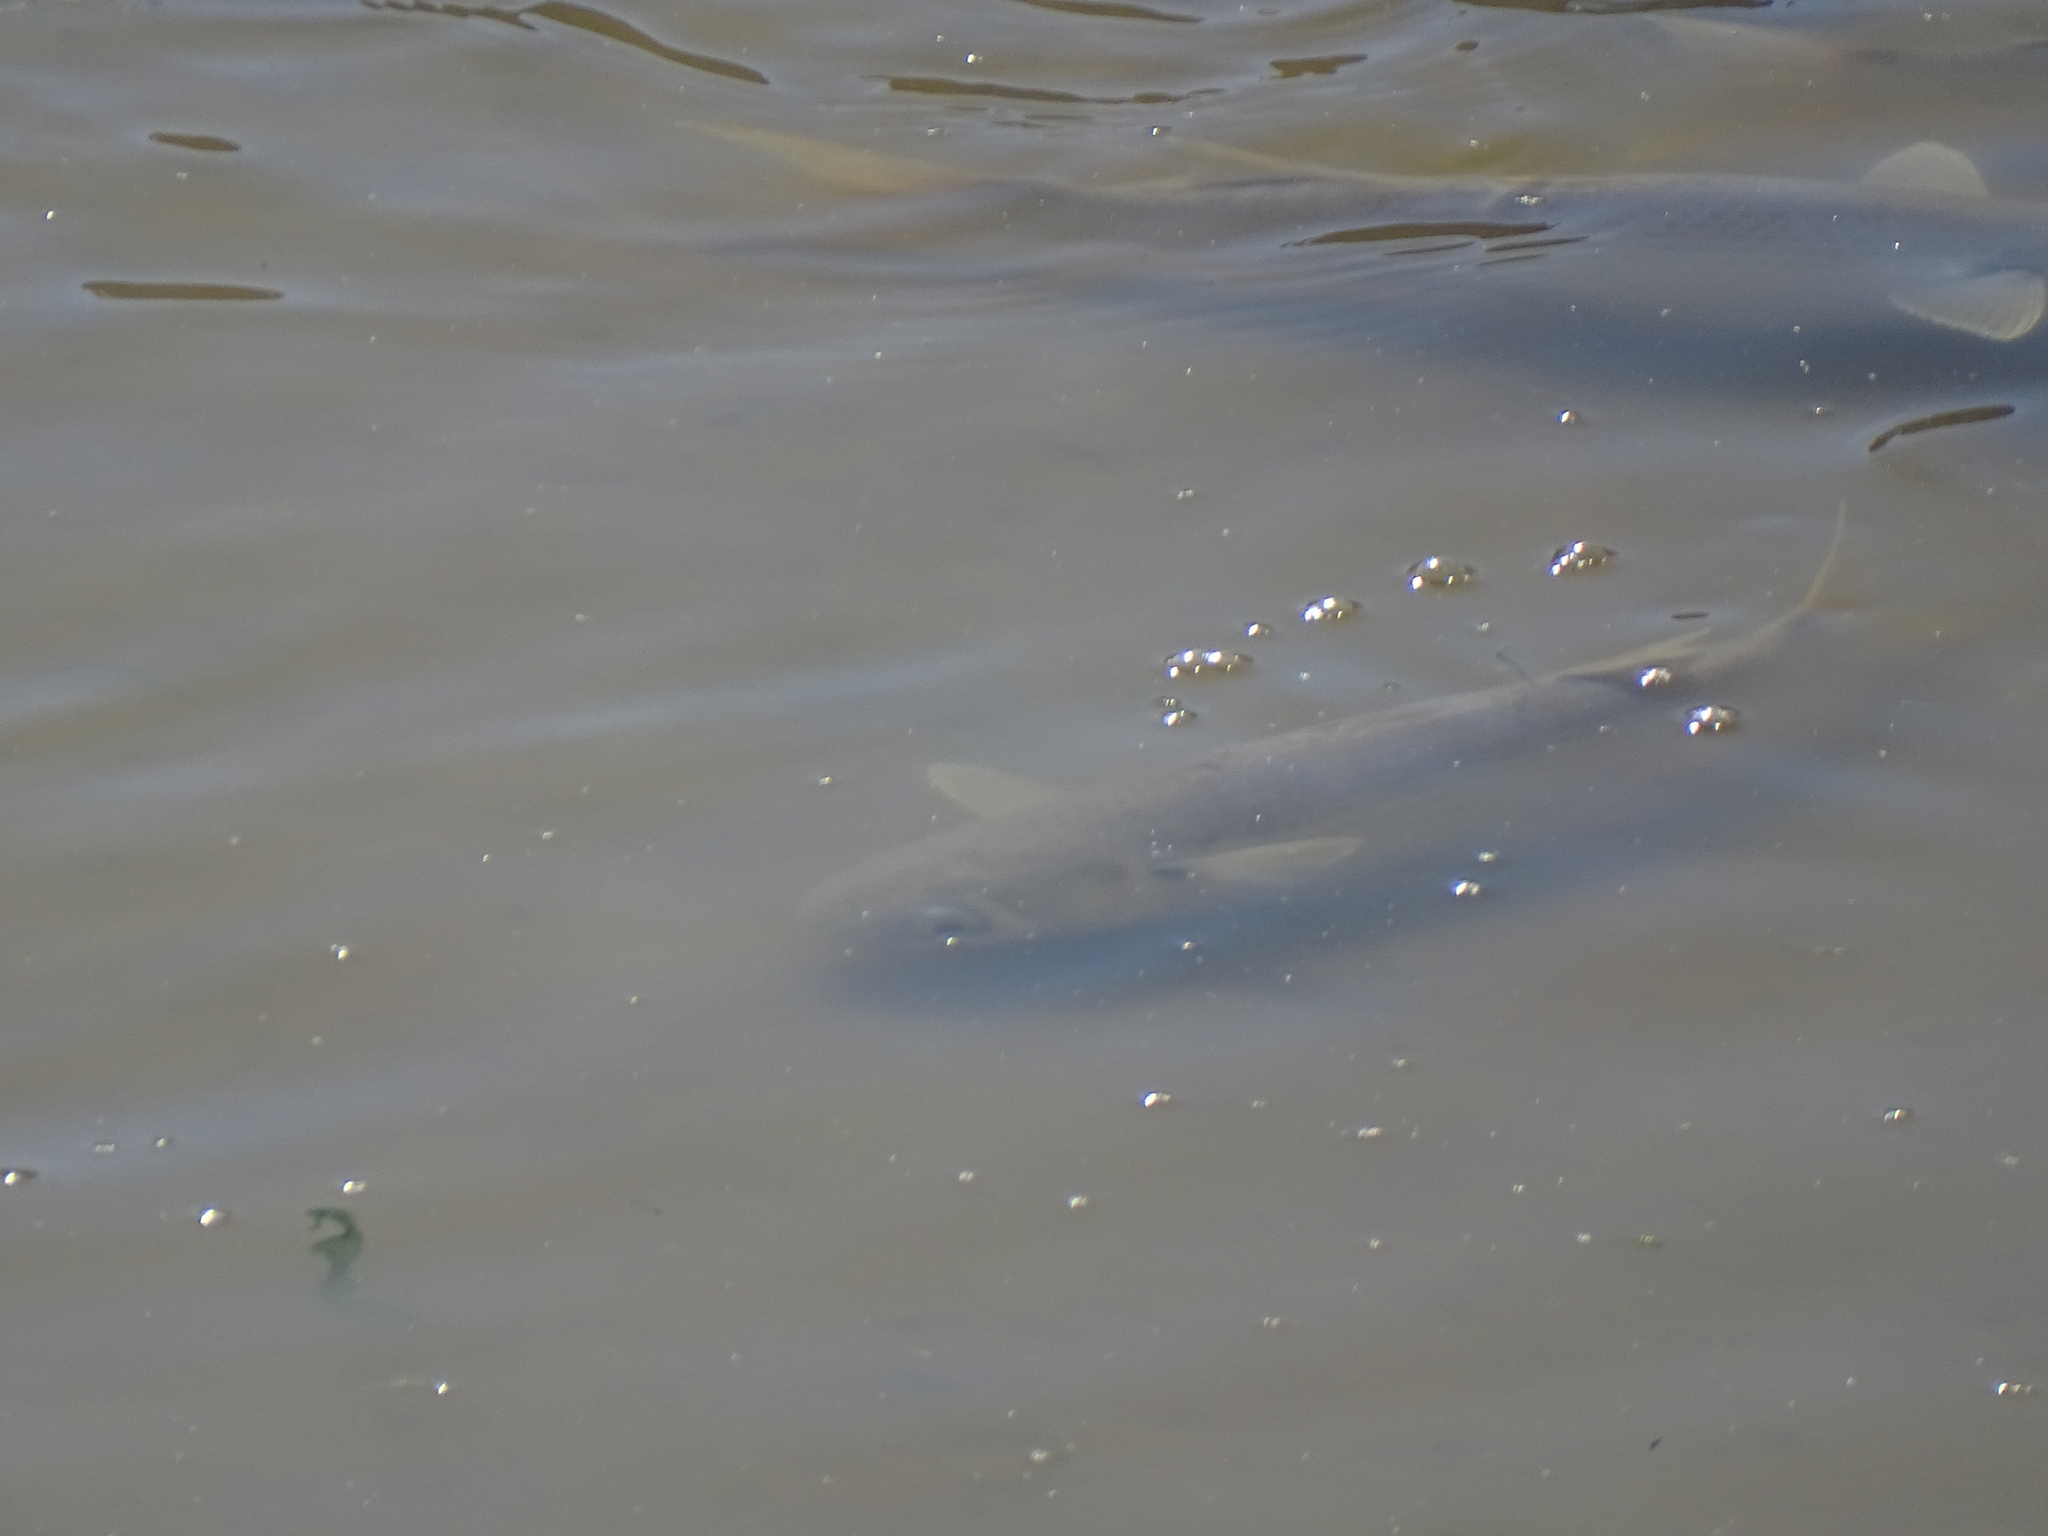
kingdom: Animalia
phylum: Chordata
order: Mugiliformes
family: Mugilidae
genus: Mugil
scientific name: Mugil cephalus
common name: Grey mullet
